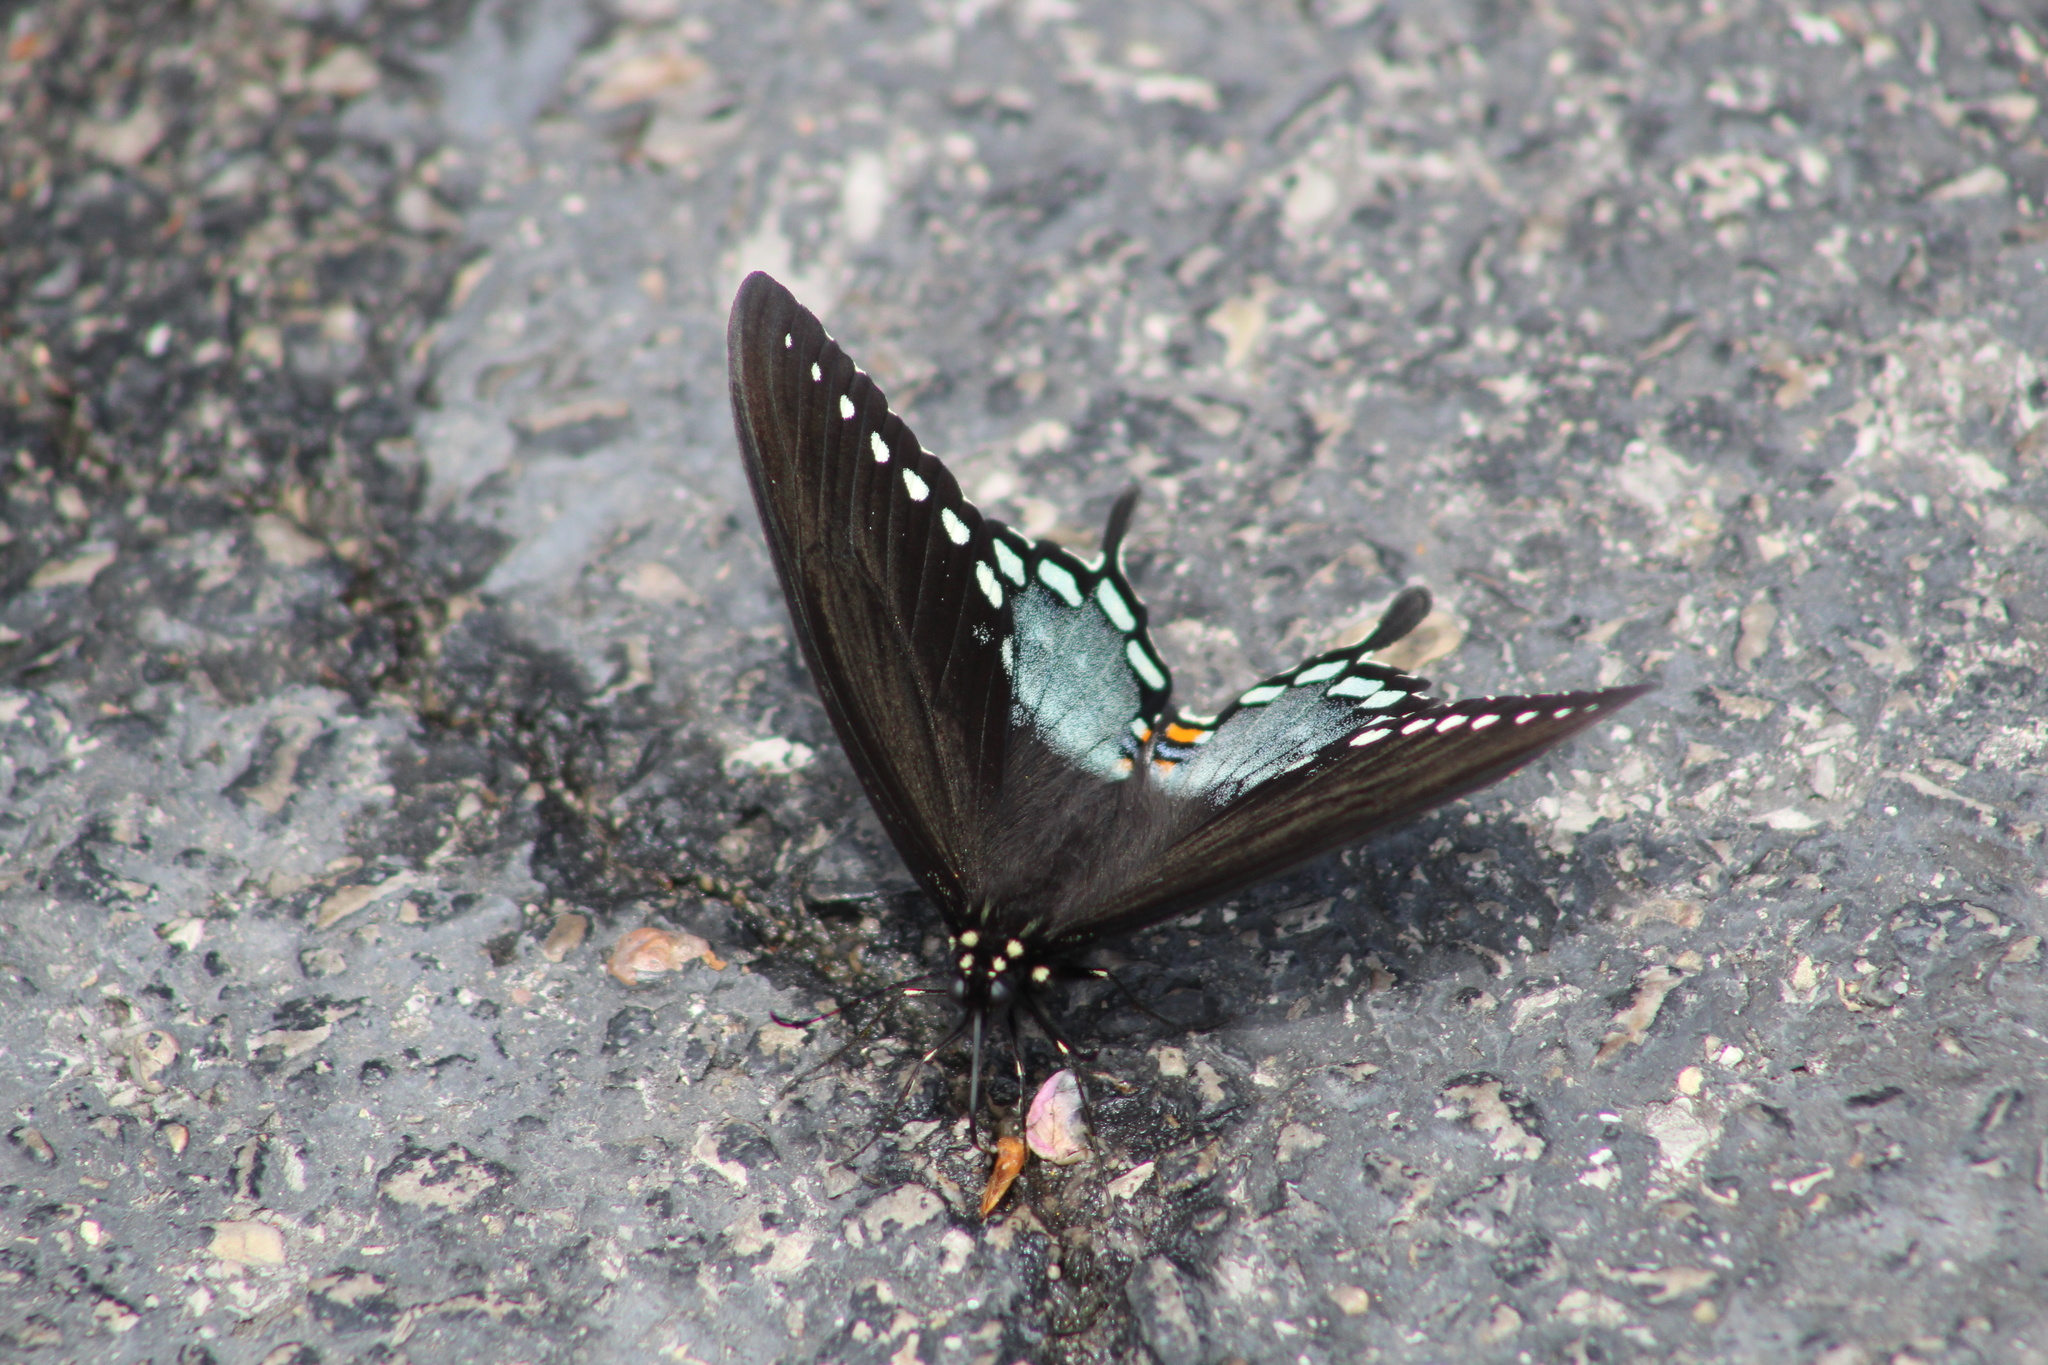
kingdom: Animalia
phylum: Arthropoda
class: Insecta
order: Lepidoptera
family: Papilionidae
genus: Papilio
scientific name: Papilio troilus
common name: Spicebush swallowtail
